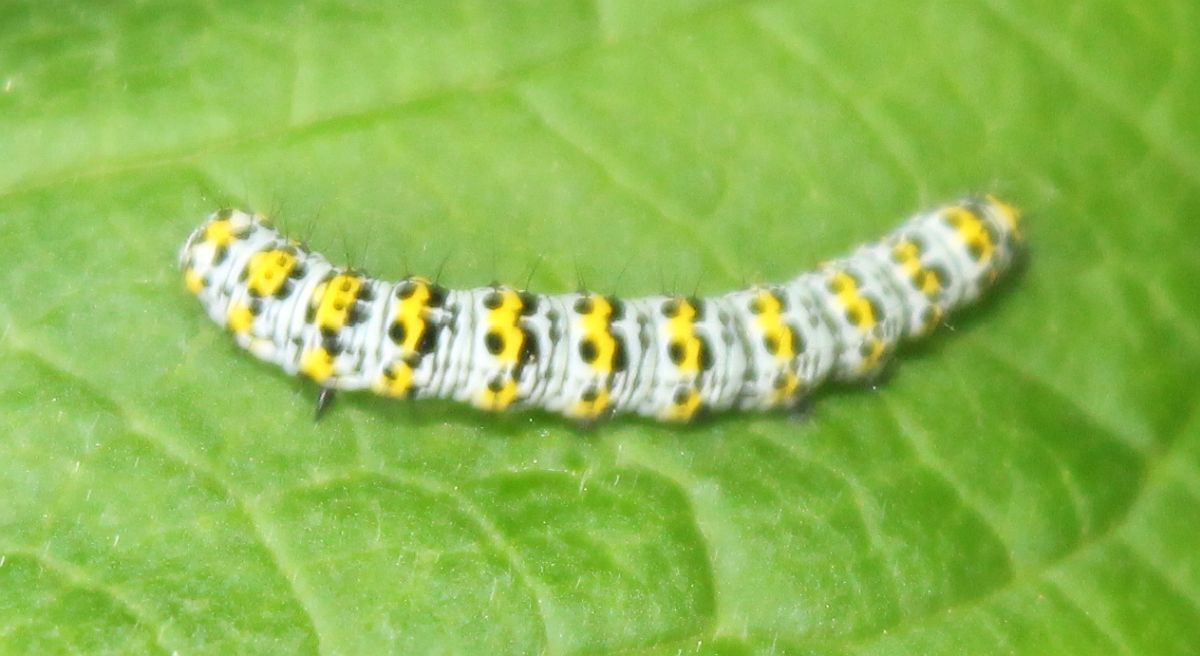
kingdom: Animalia
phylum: Arthropoda
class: Insecta
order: Lepidoptera
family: Noctuidae
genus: Cucullia
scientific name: Cucullia verbasci
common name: Mullein
